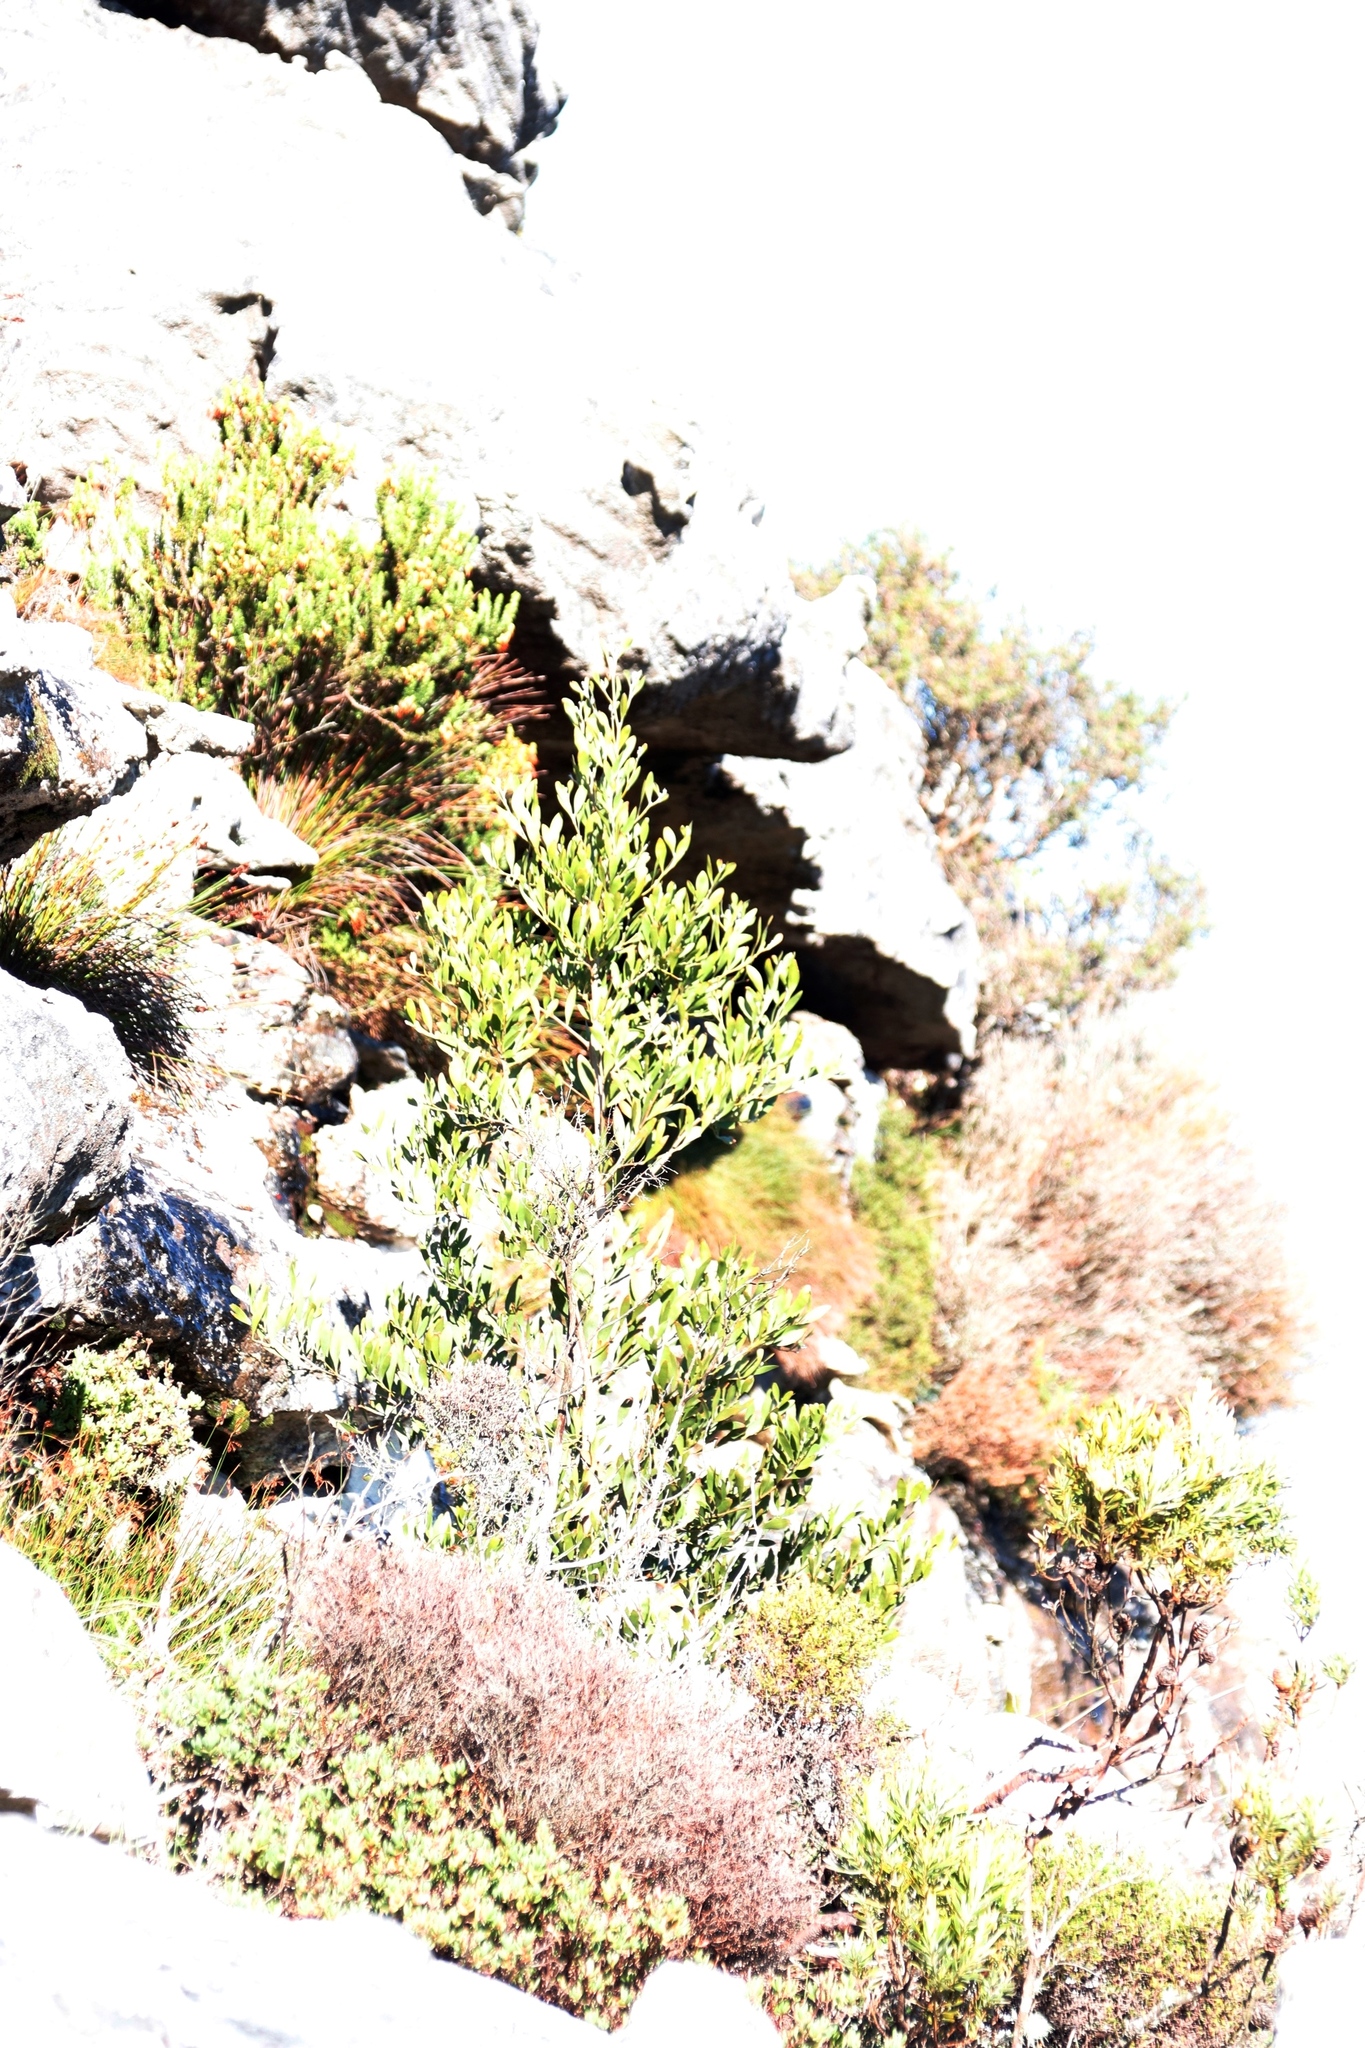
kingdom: Plantae
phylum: Tracheophyta
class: Magnoliopsida
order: Fabales
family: Fabaceae
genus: Acacia
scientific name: Acacia melanoxylon
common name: Blackwood
